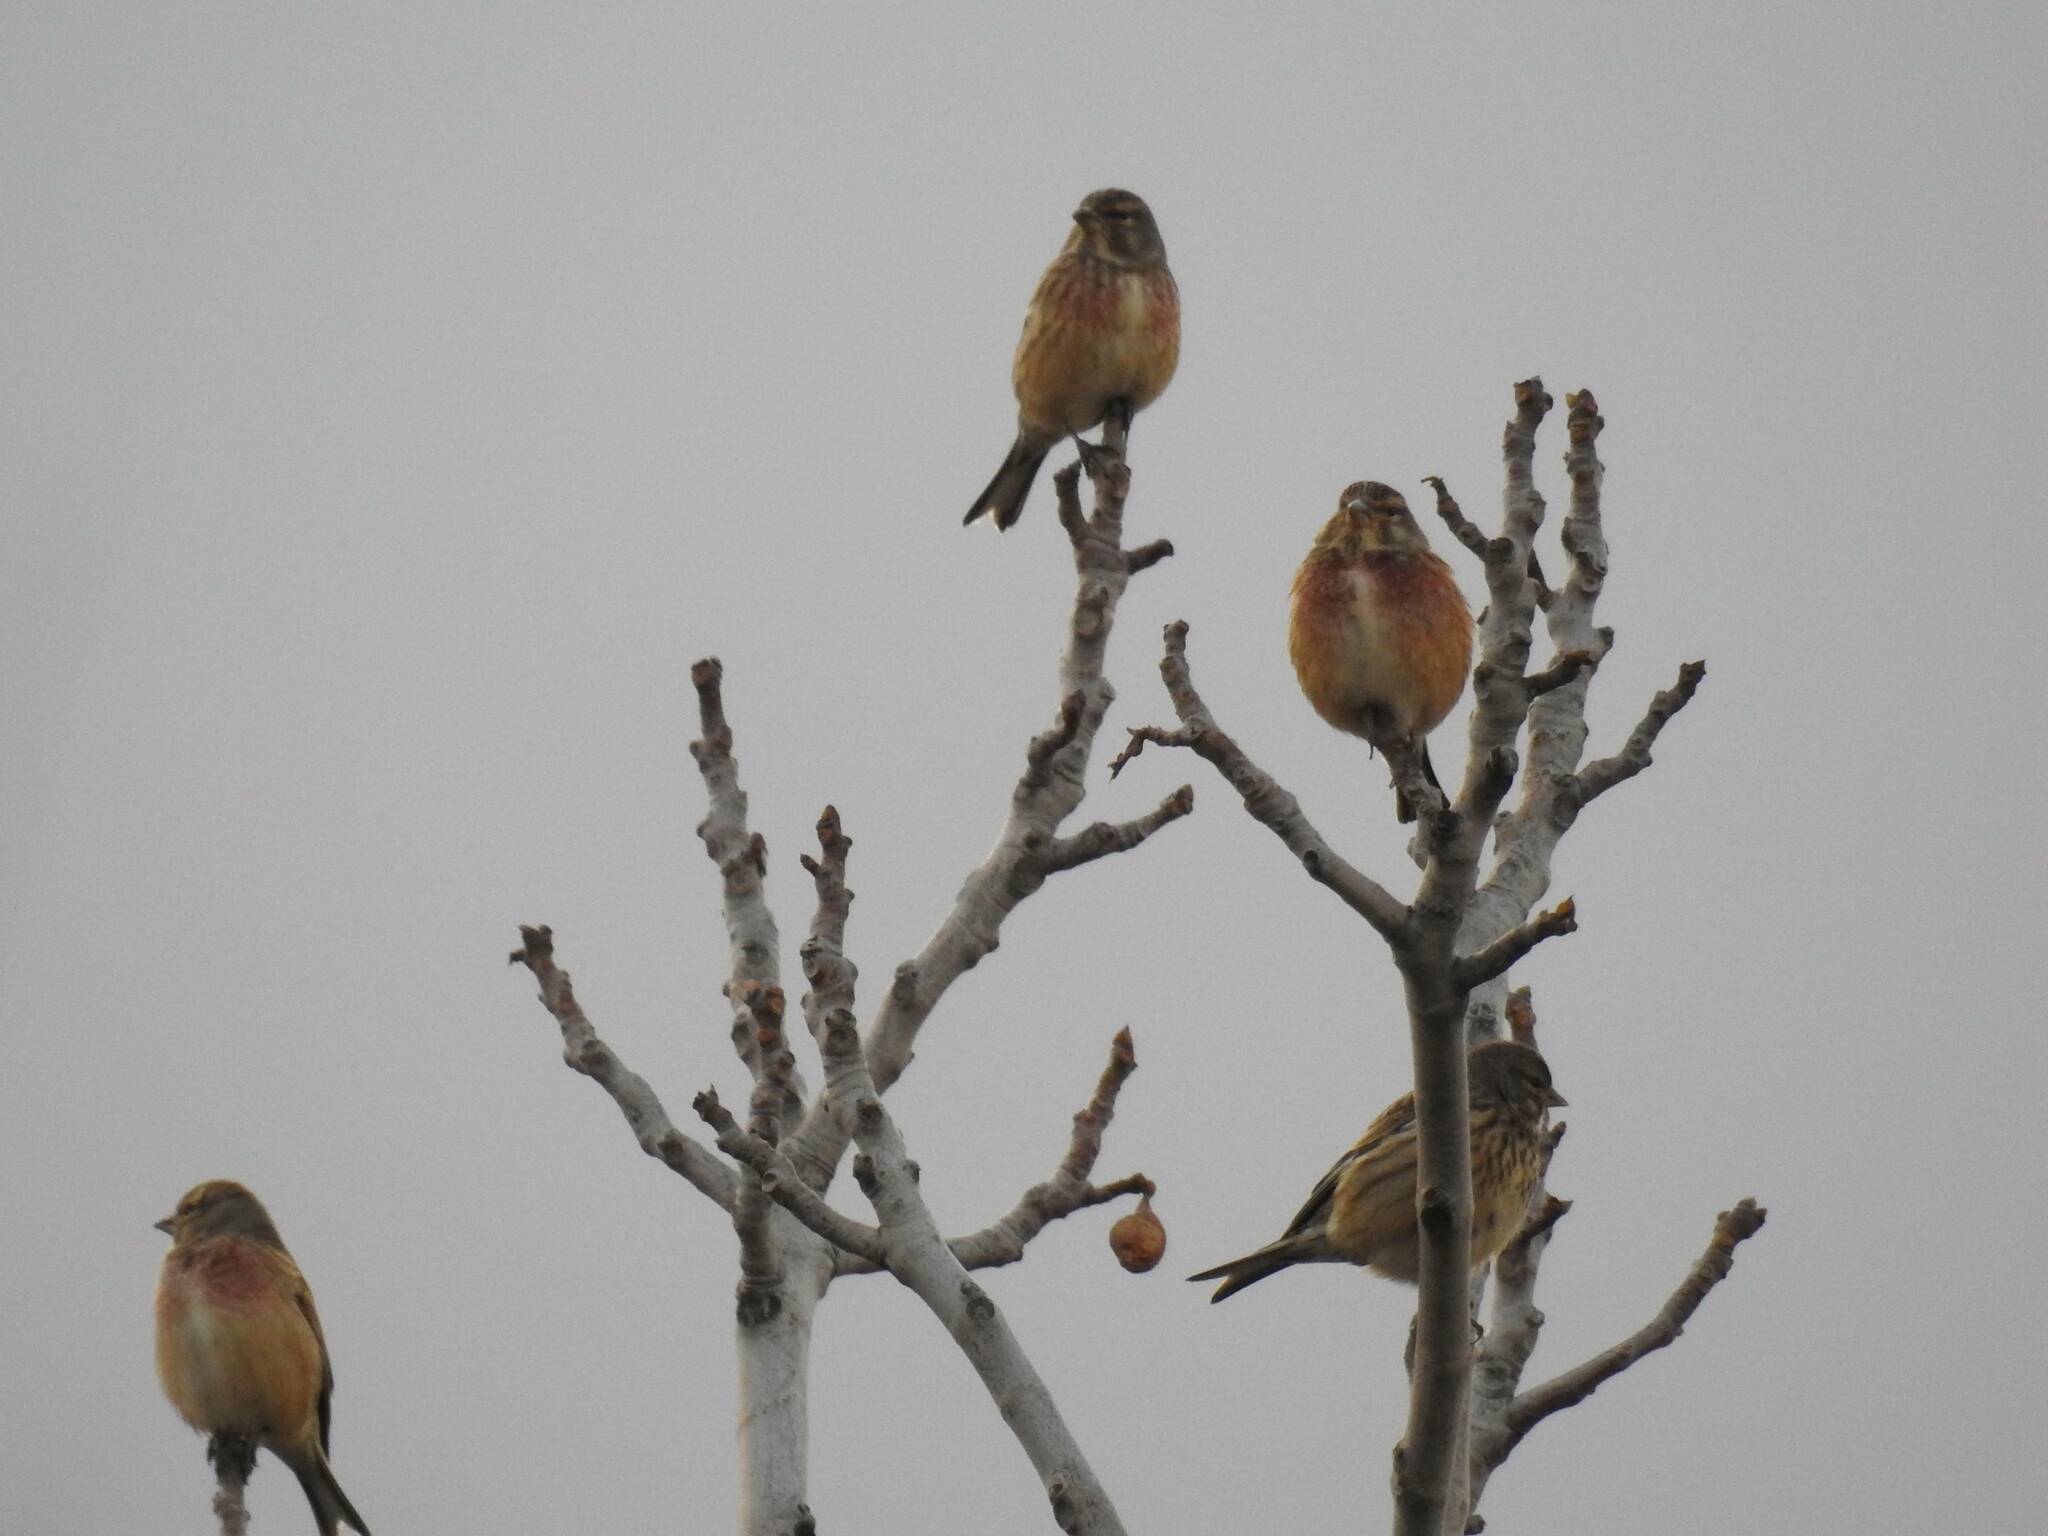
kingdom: Animalia
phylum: Chordata
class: Aves
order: Passeriformes
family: Fringillidae
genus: Linaria
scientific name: Linaria cannabina
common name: Common linnet
